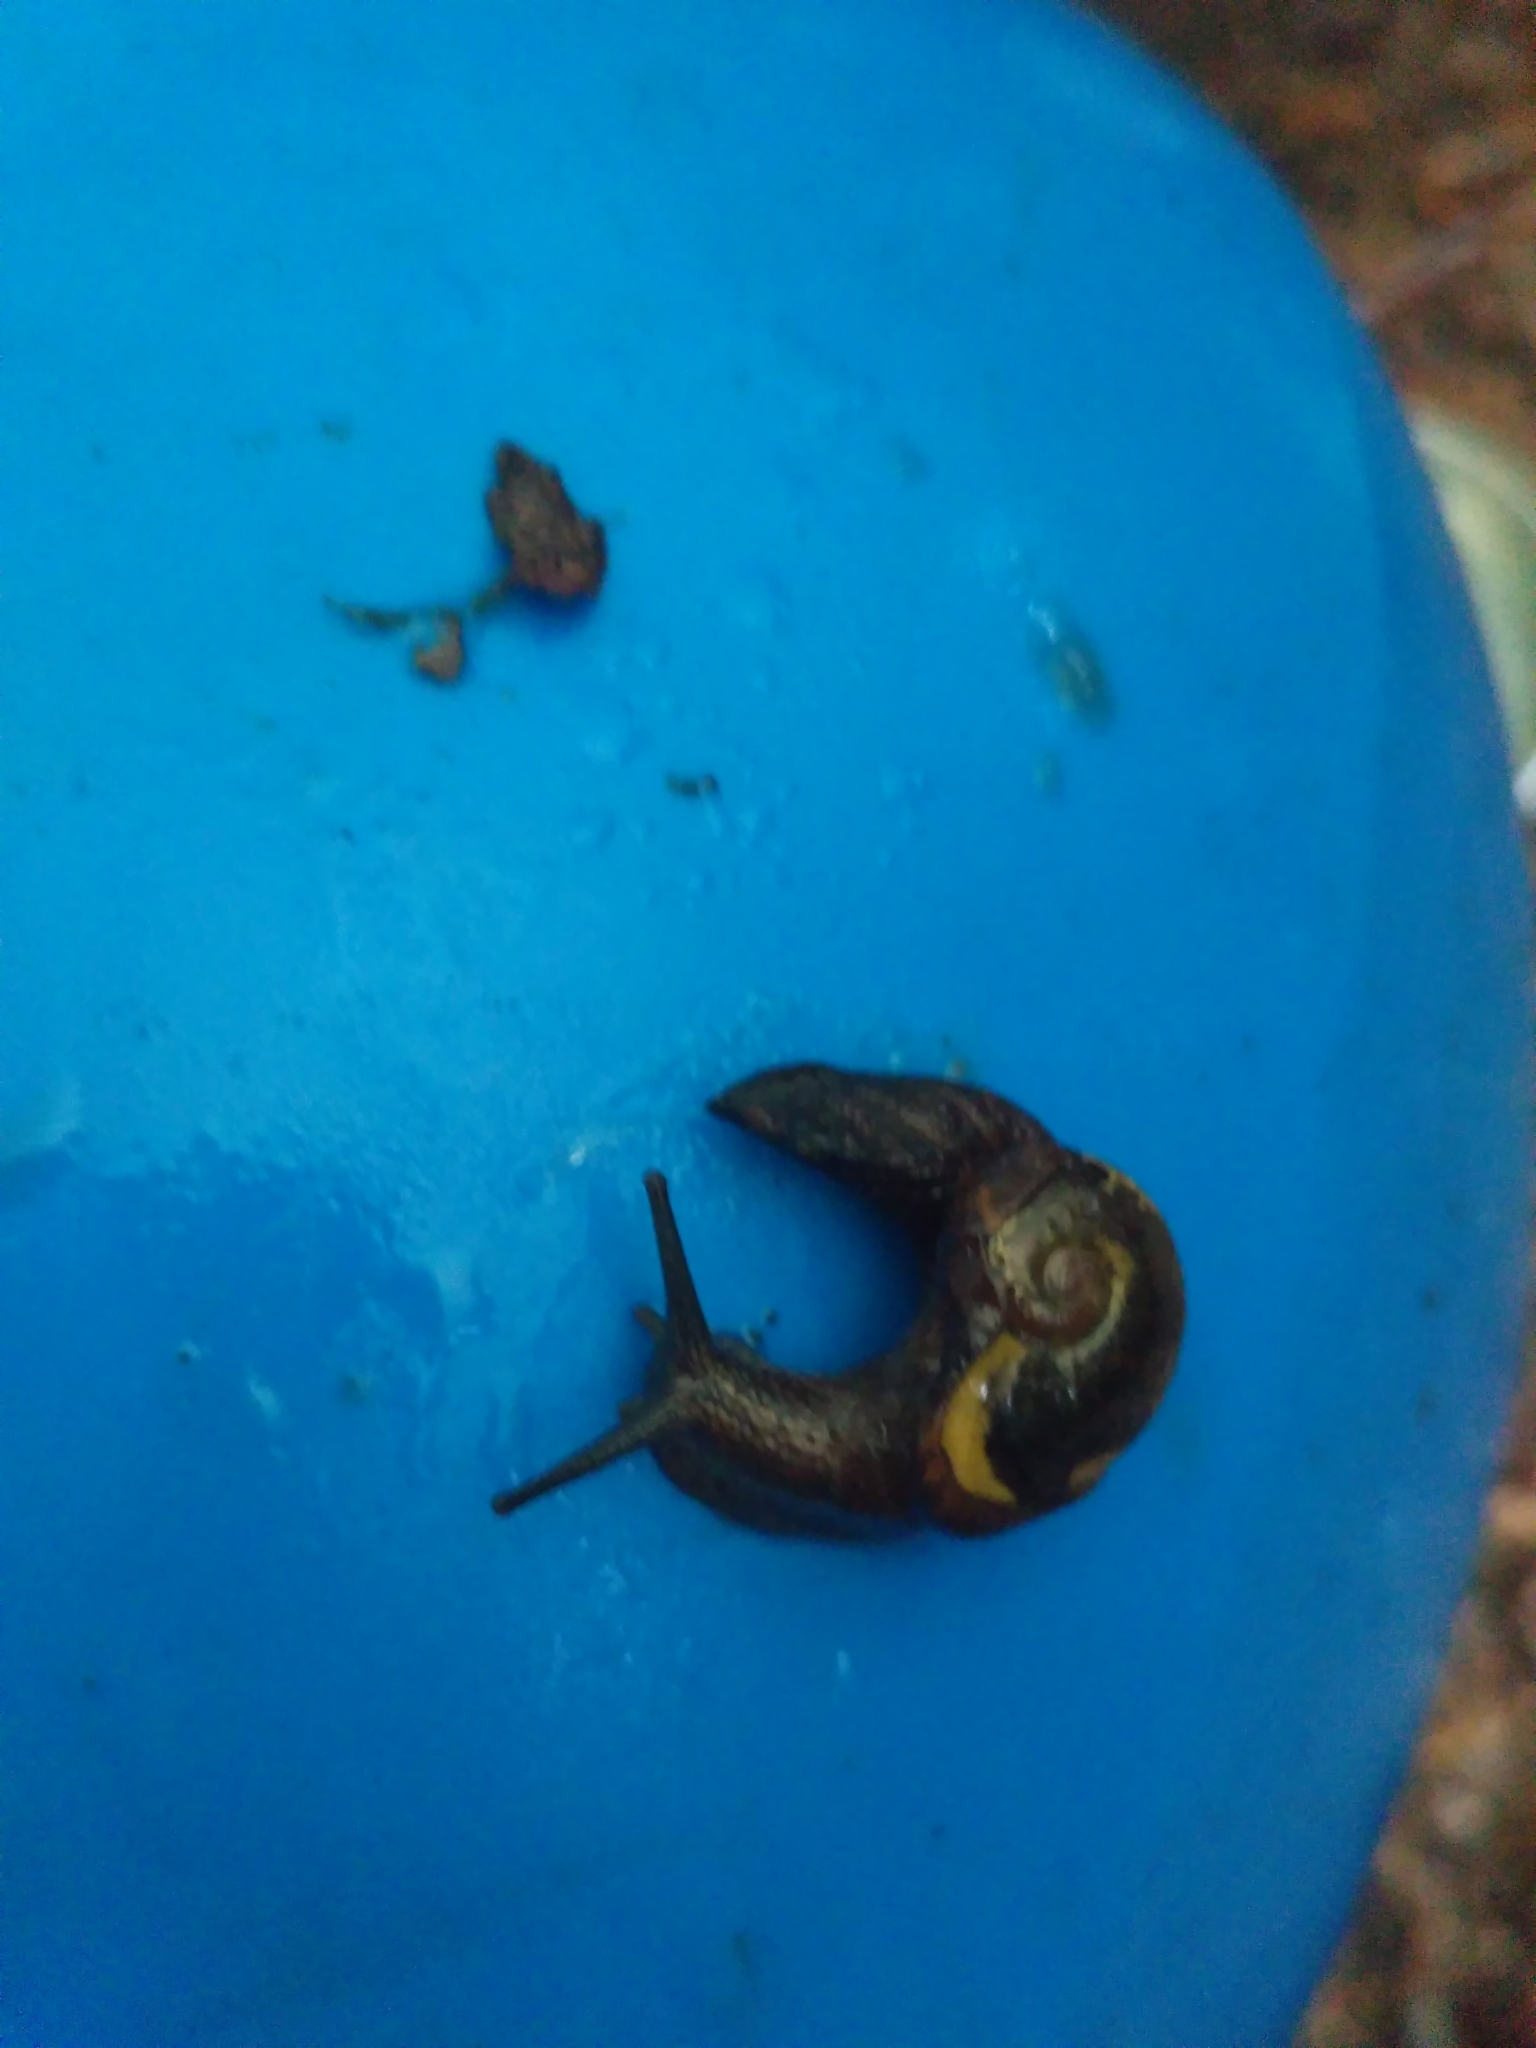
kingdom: Animalia
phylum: Mollusca
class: Gastropoda
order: Stylommatophora
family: Helicarionidae
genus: Helicarion
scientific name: Helicarion cuvieri
